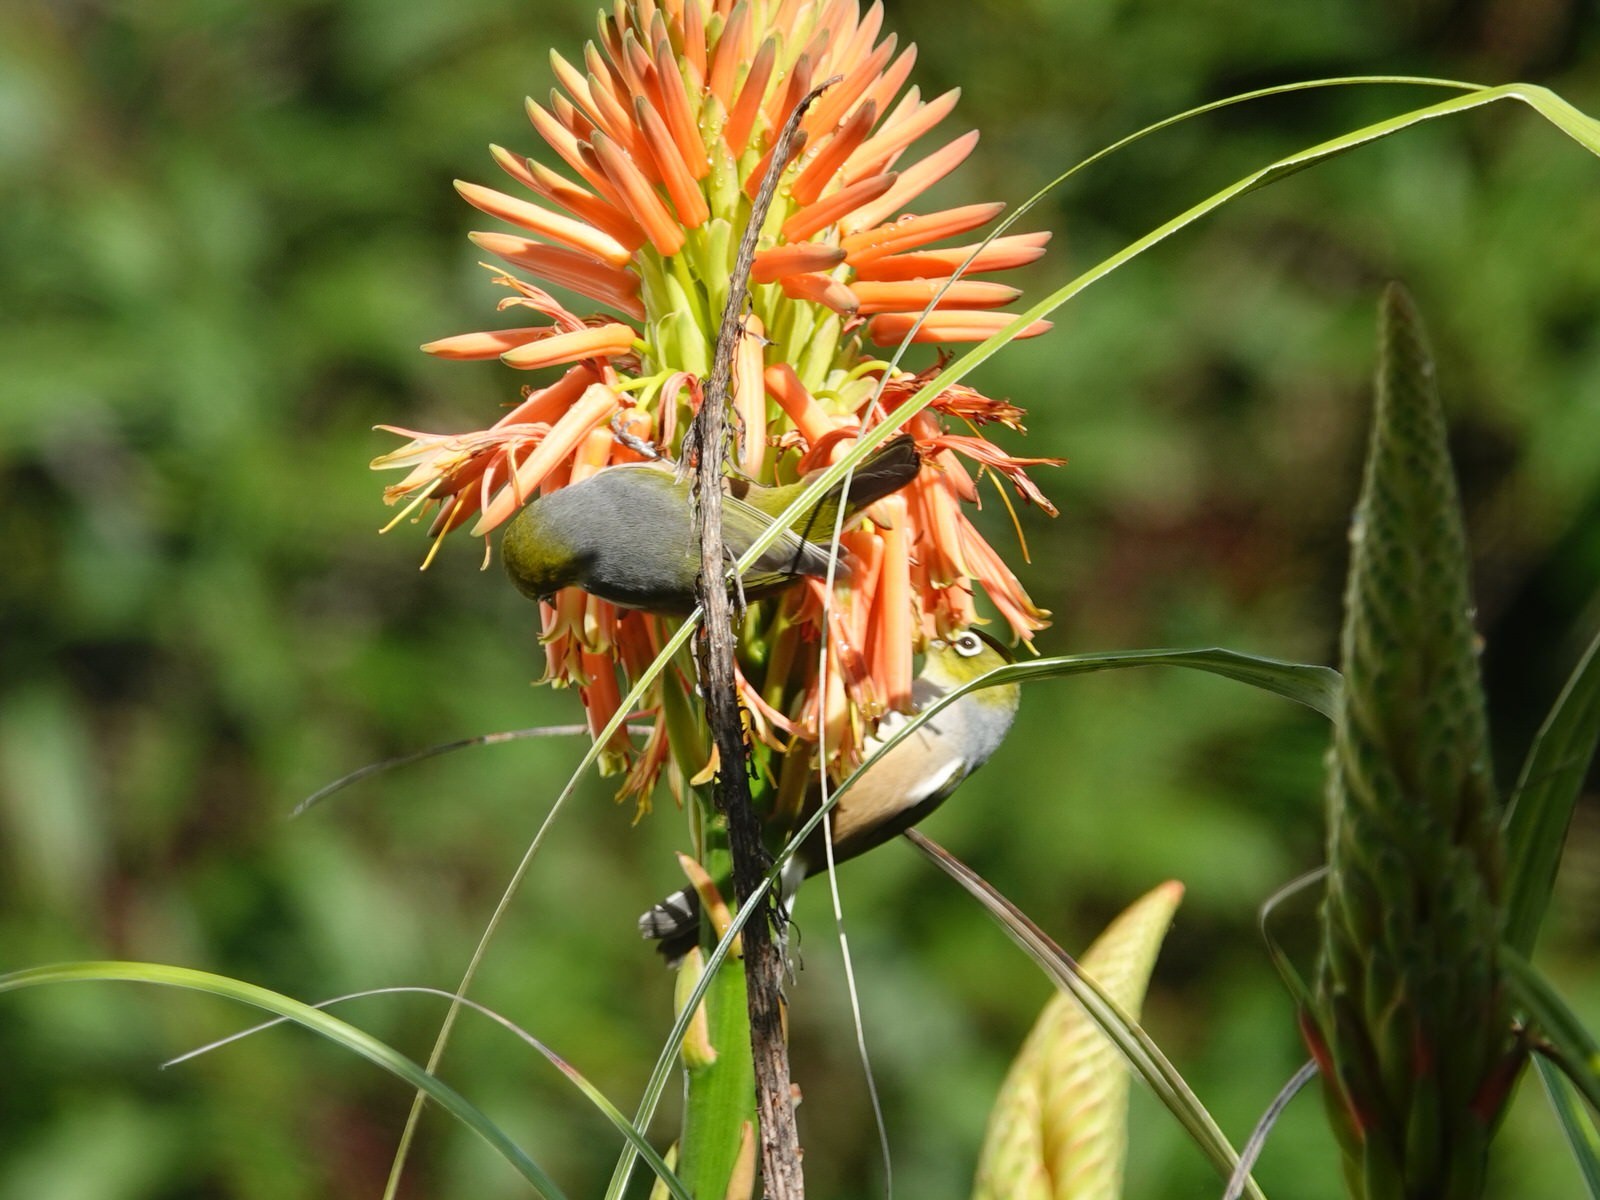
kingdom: Animalia
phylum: Chordata
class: Aves
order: Passeriformes
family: Zosteropidae
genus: Zosterops
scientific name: Zosterops lateralis
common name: Silvereye
